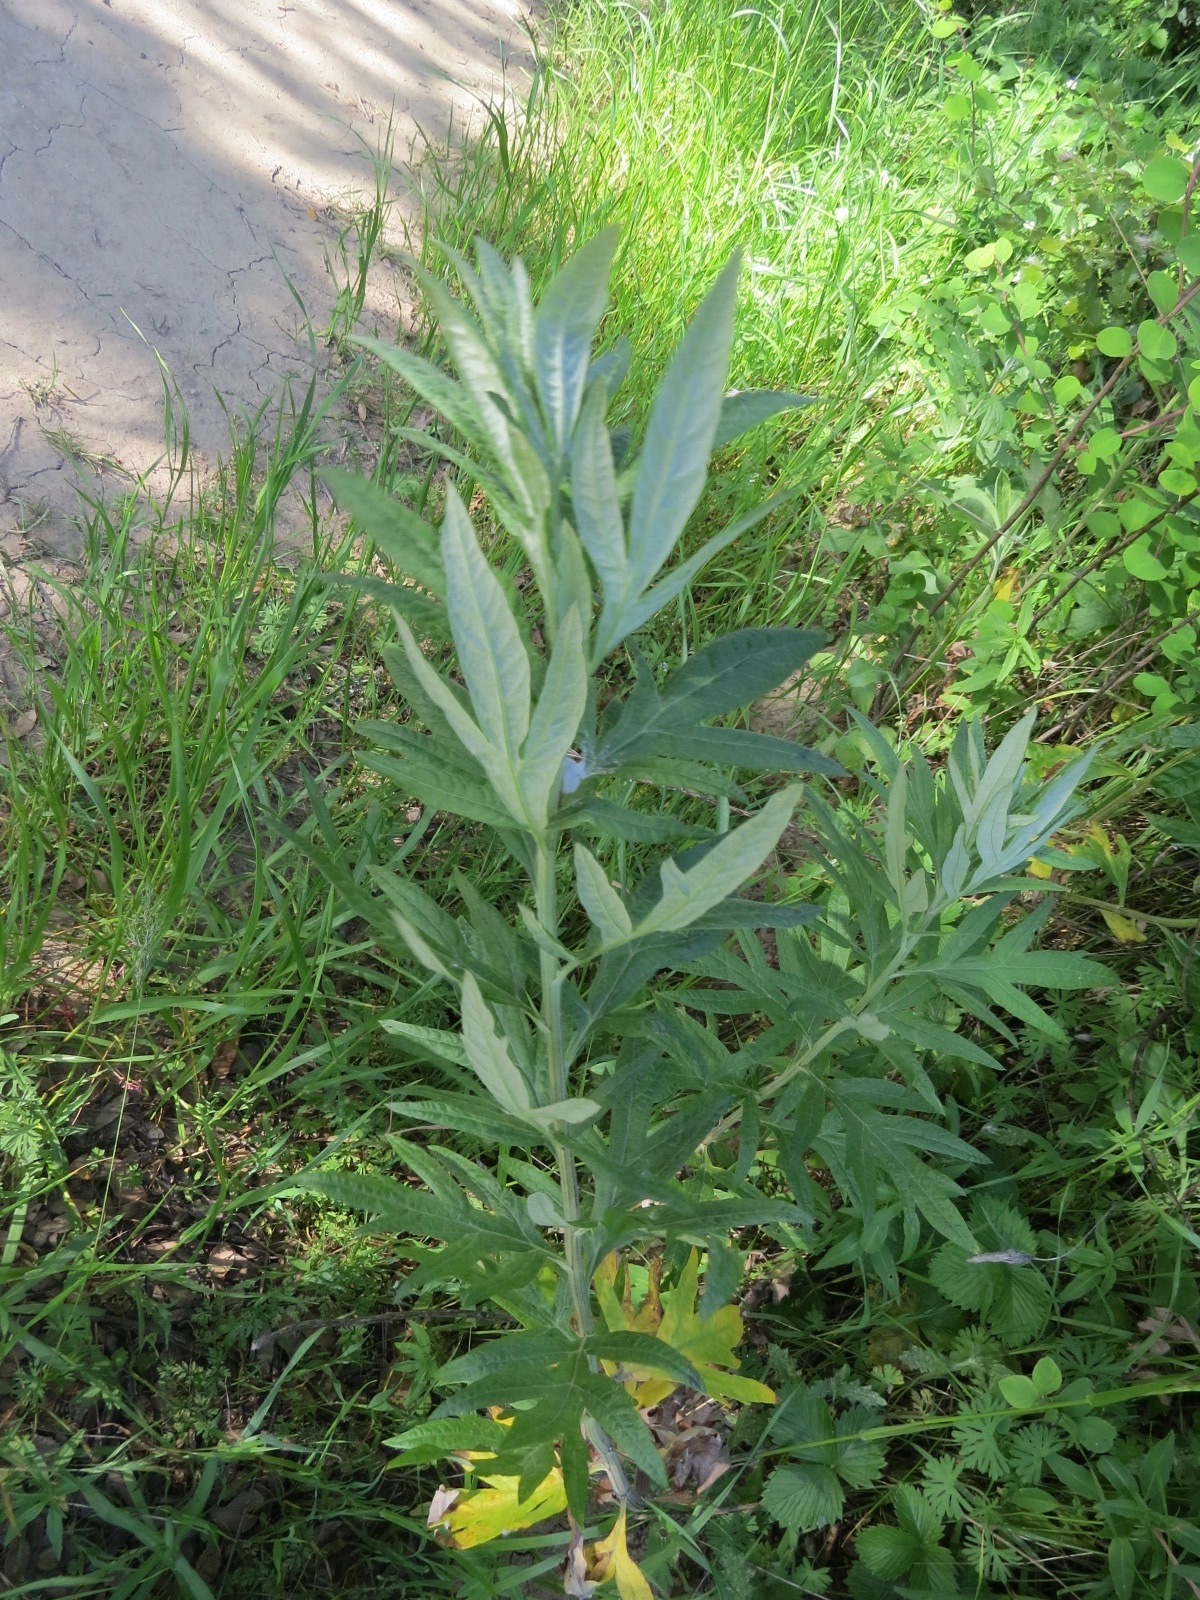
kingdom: Plantae
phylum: Tracheophyta
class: Magnoliopsida
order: Asterales
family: Asteraceae
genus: Artemisia
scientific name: Artemisia douglasiana
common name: Northwest mugwort
